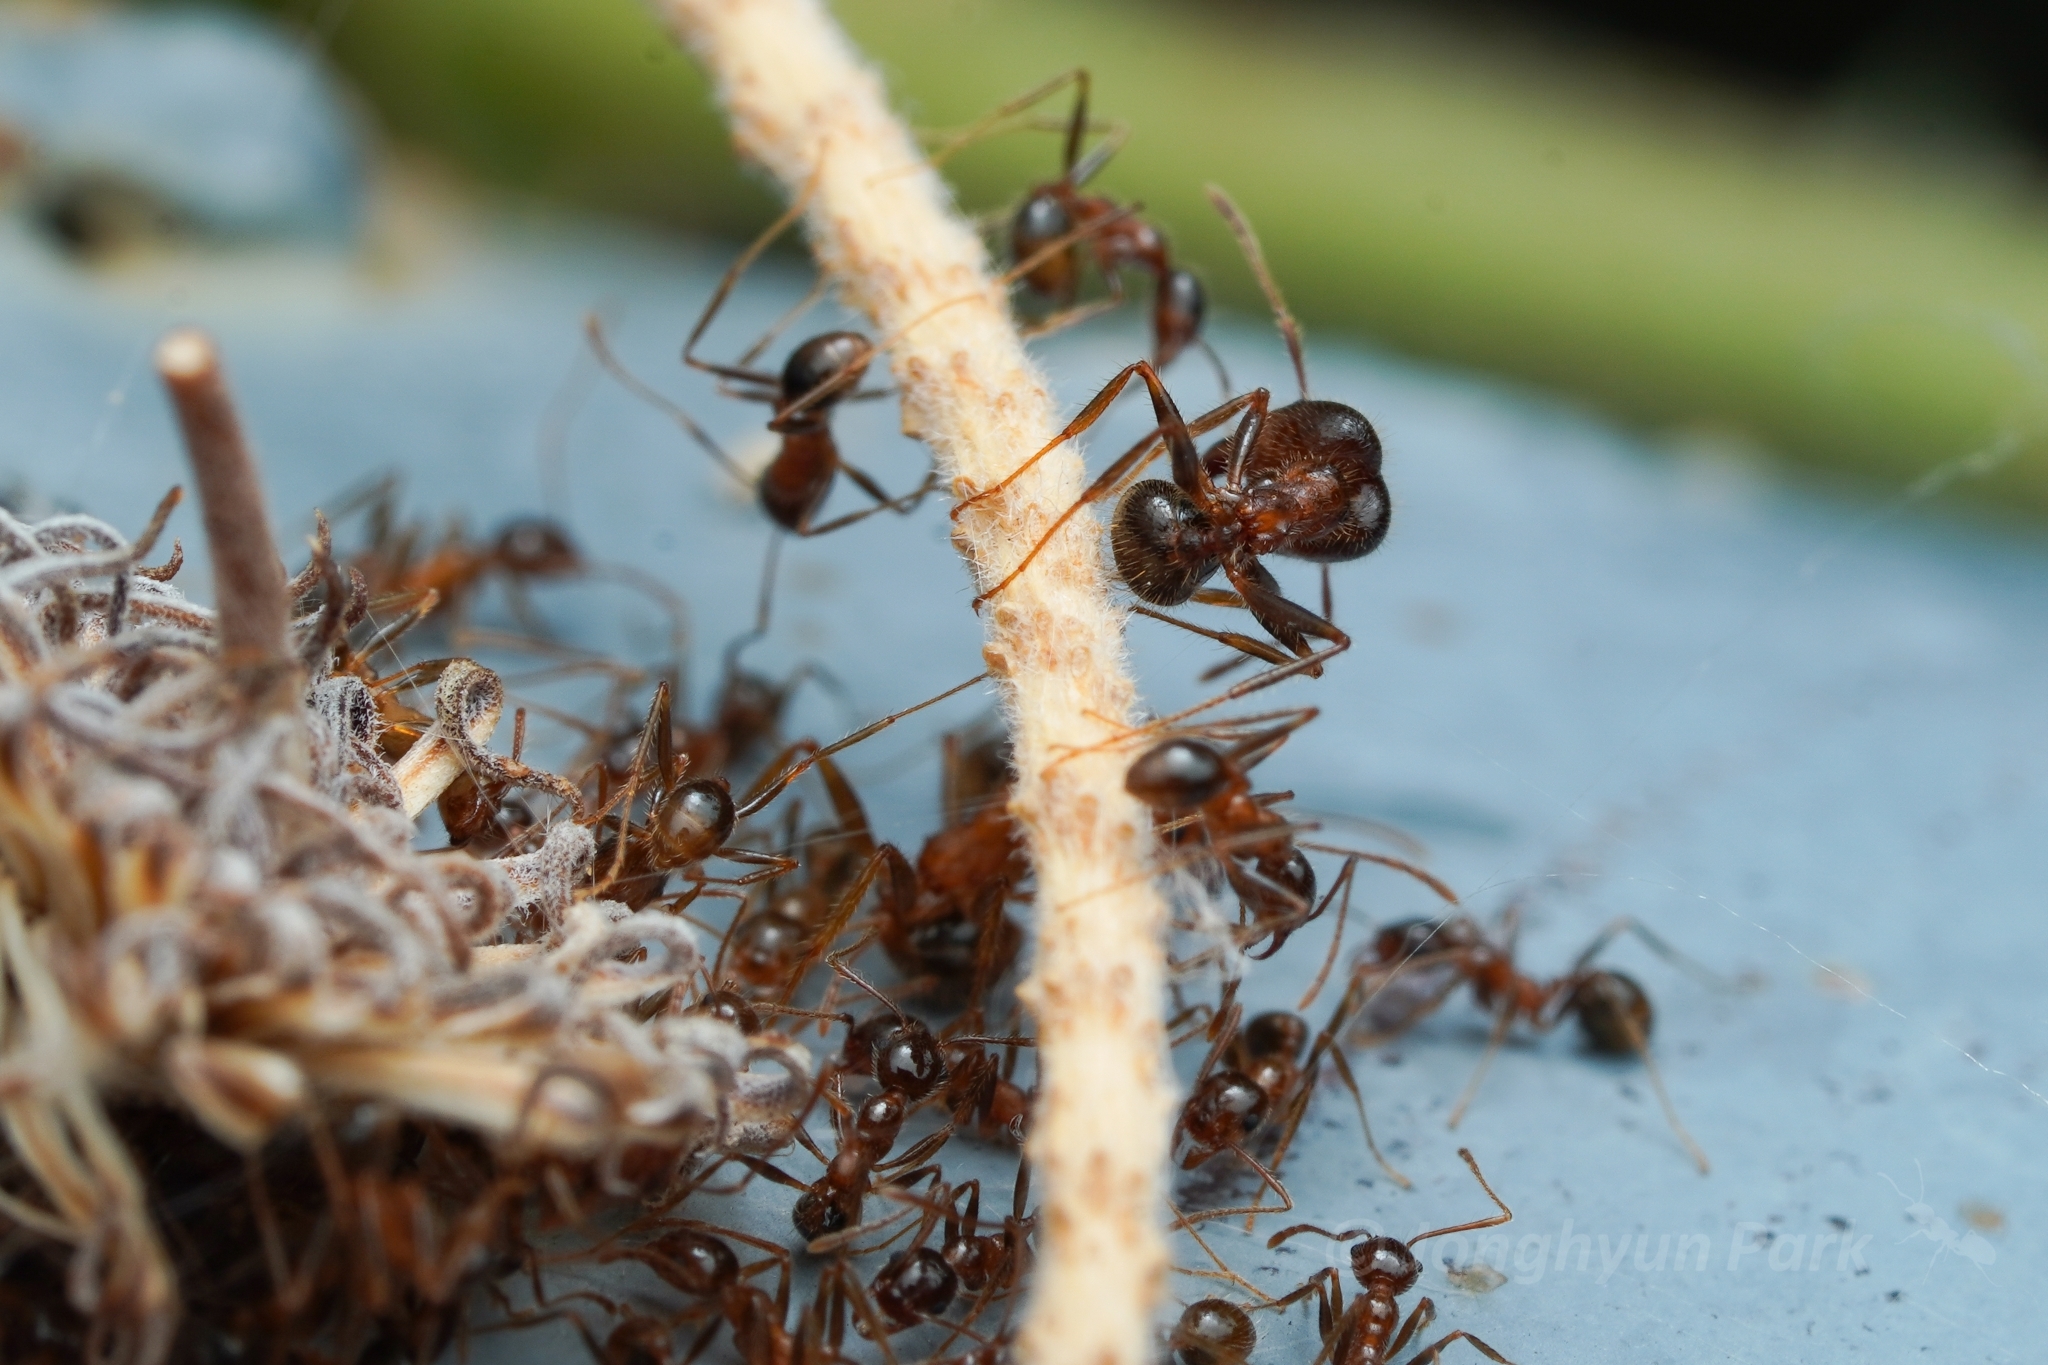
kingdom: Animalia
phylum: Arthropoda
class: Insecta
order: Hymenoptera
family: Formicidae
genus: Pheidole
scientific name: Pheidole obtusospinosa
